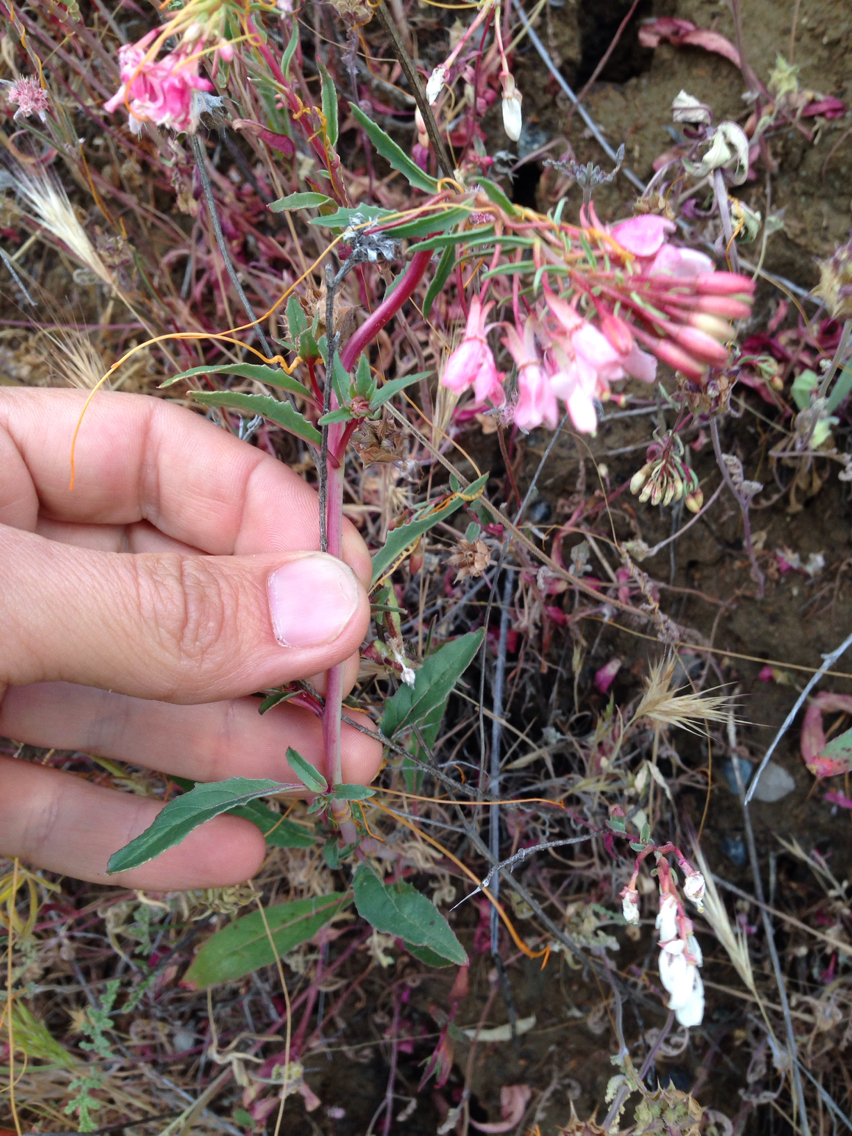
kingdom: Plantae
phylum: Tracheophyta
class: Magnoliopsida
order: Myrtales
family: Onagraceae
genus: Eremothera
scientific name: Eremothera boothii
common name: Booth's evening primrose
